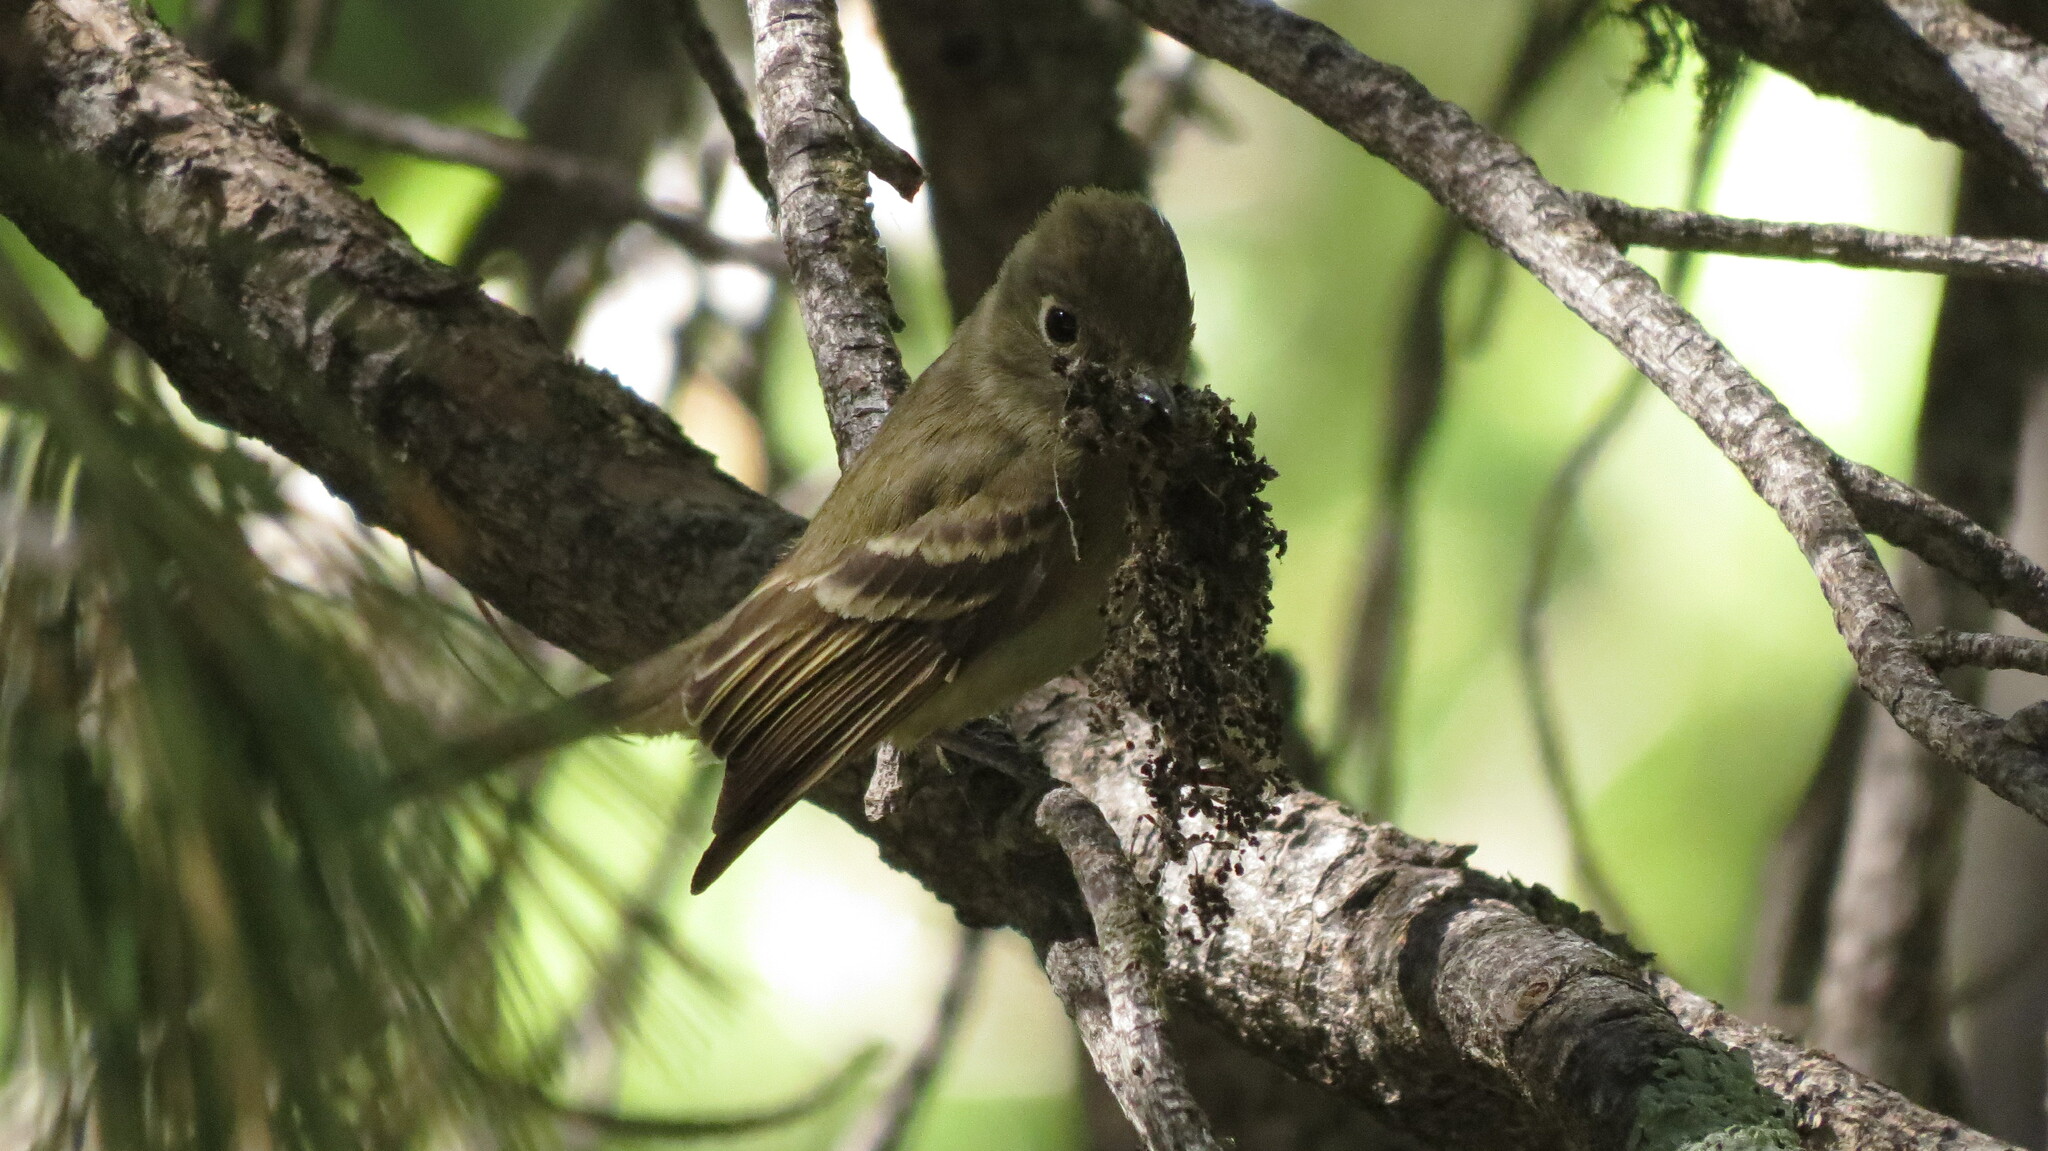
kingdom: Animalia
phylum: Chordata
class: Aves
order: Passeriformes
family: Tyrannidae
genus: Empidonax
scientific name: Empidonax difficilis
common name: Pacific-slope flycatcher
